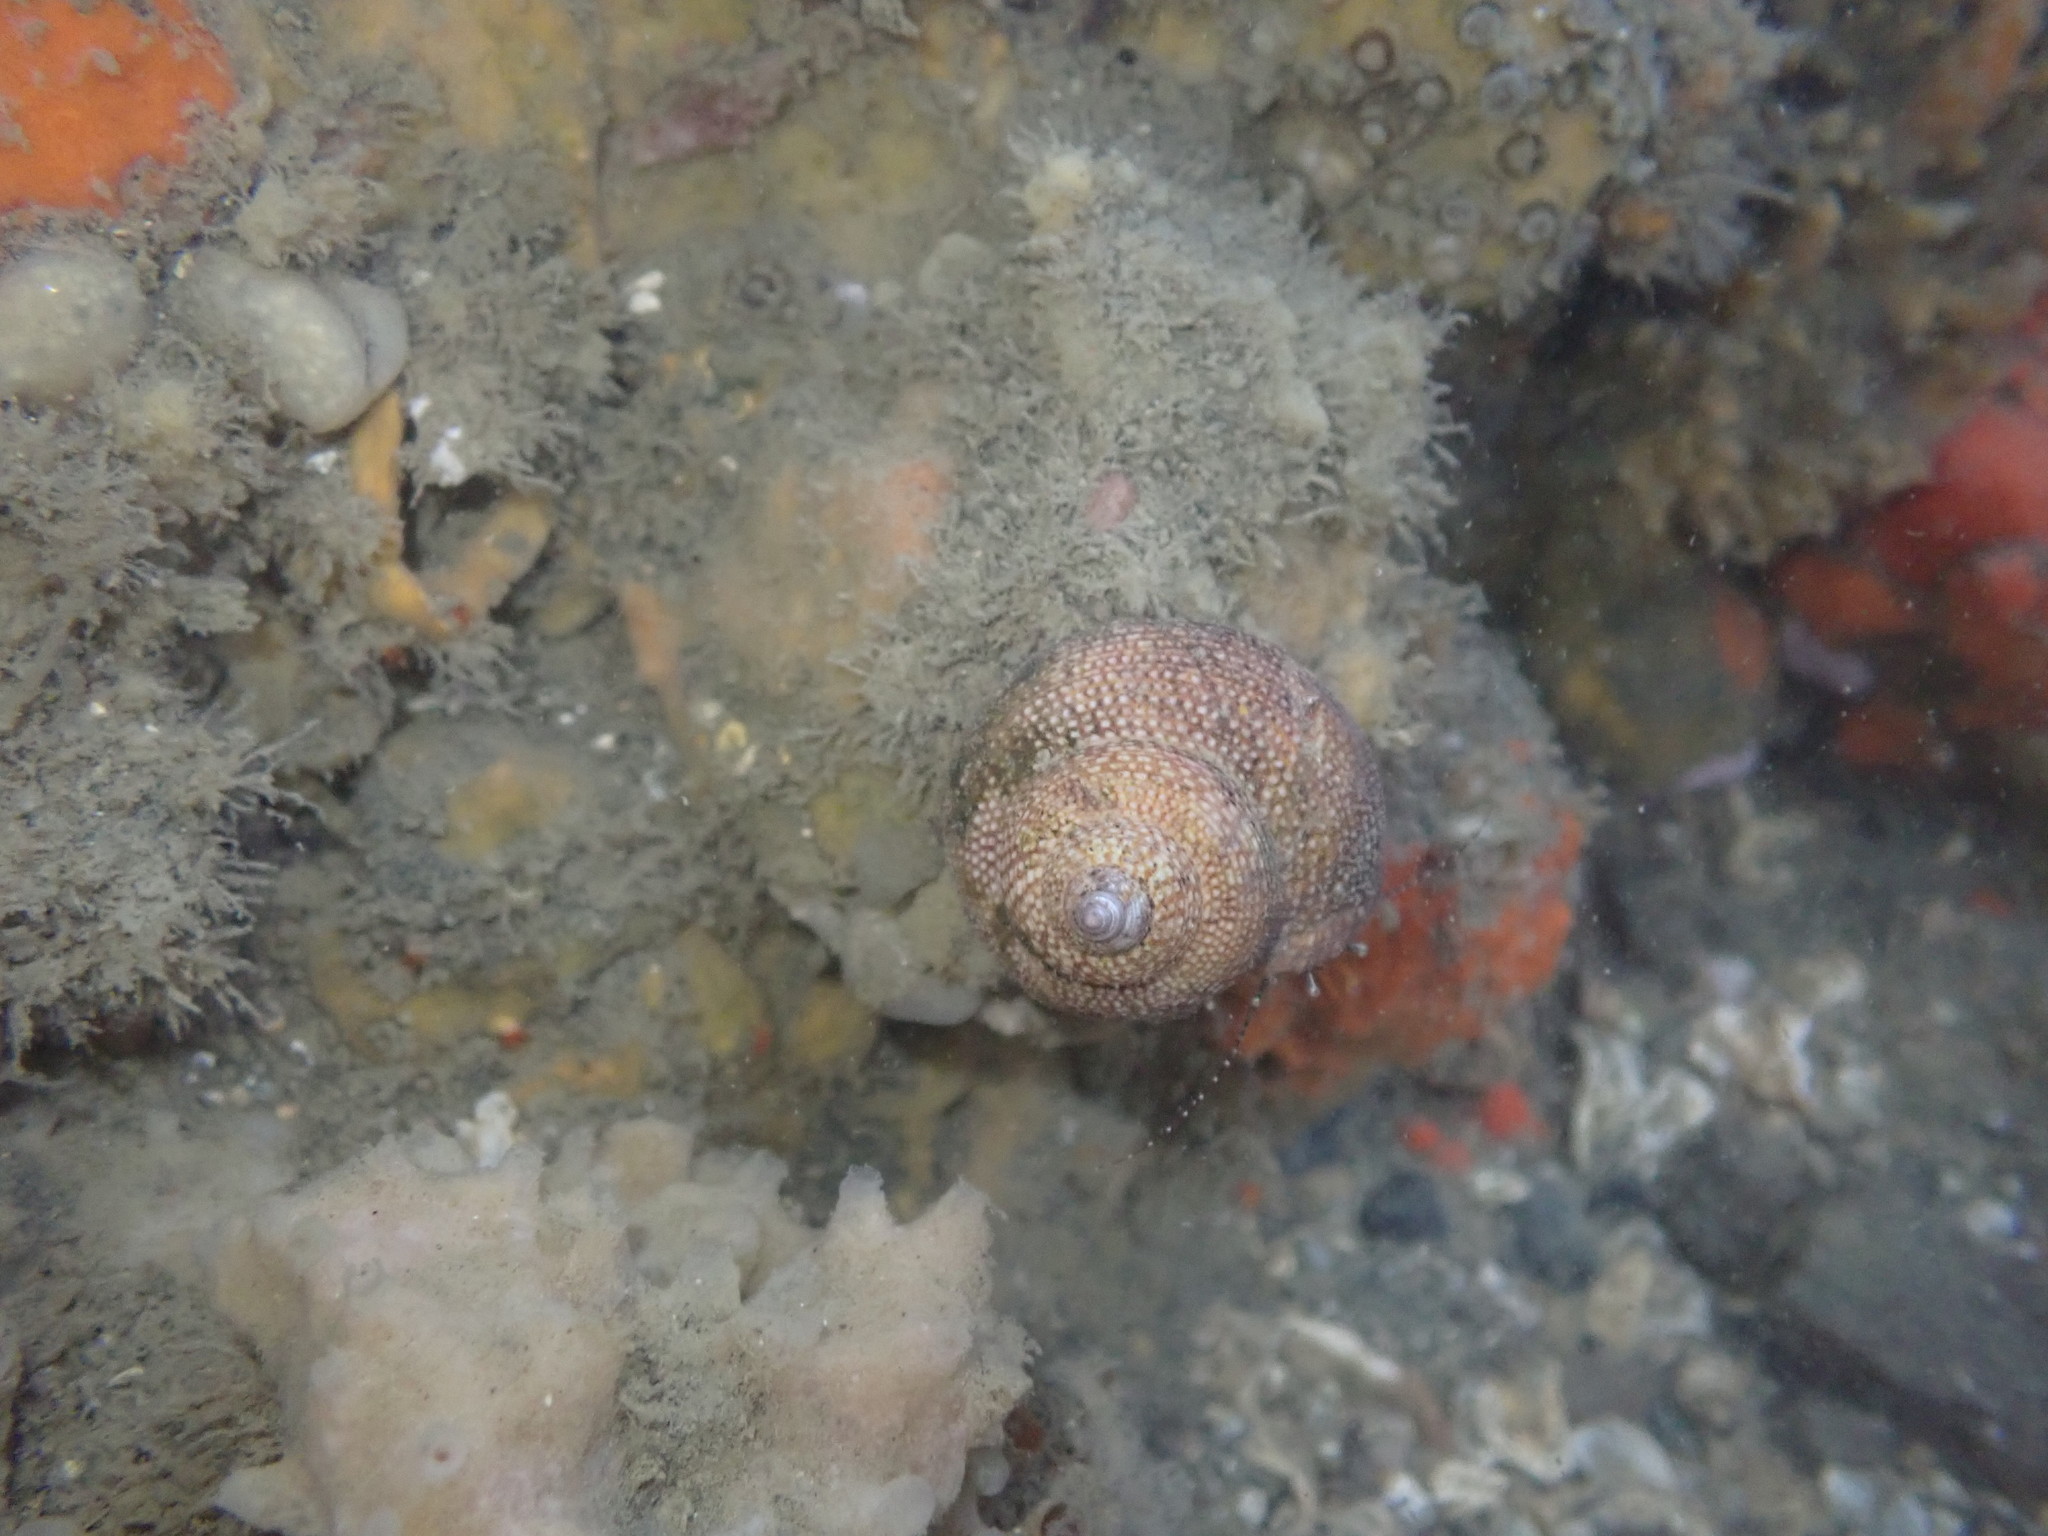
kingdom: Animalia
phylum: Arthropoda
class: Malacostraca
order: Decapoda
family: Paguridae
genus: Pagurus
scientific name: Pagurus traversi
